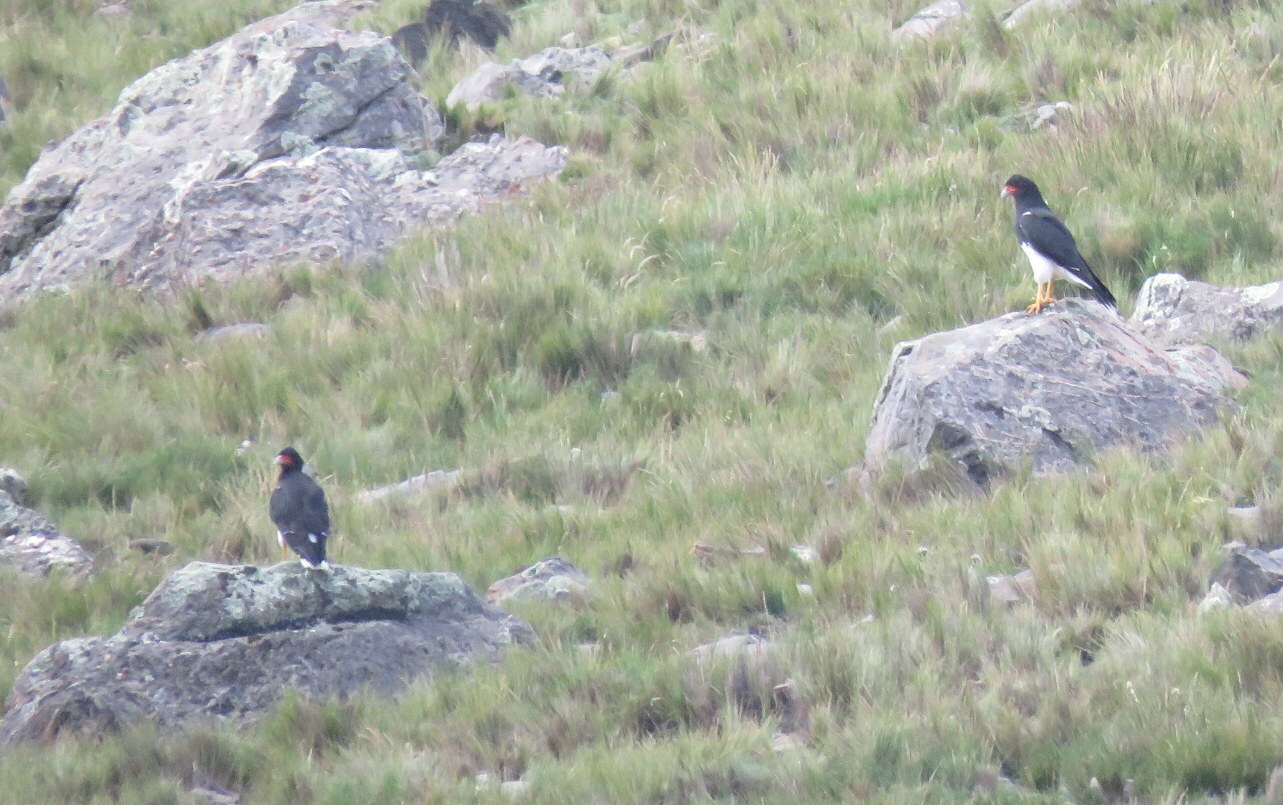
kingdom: Animalia
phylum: Chordata
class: Aves
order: Falconiformes
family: Falconidae
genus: Daptrius
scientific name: Daptrius
